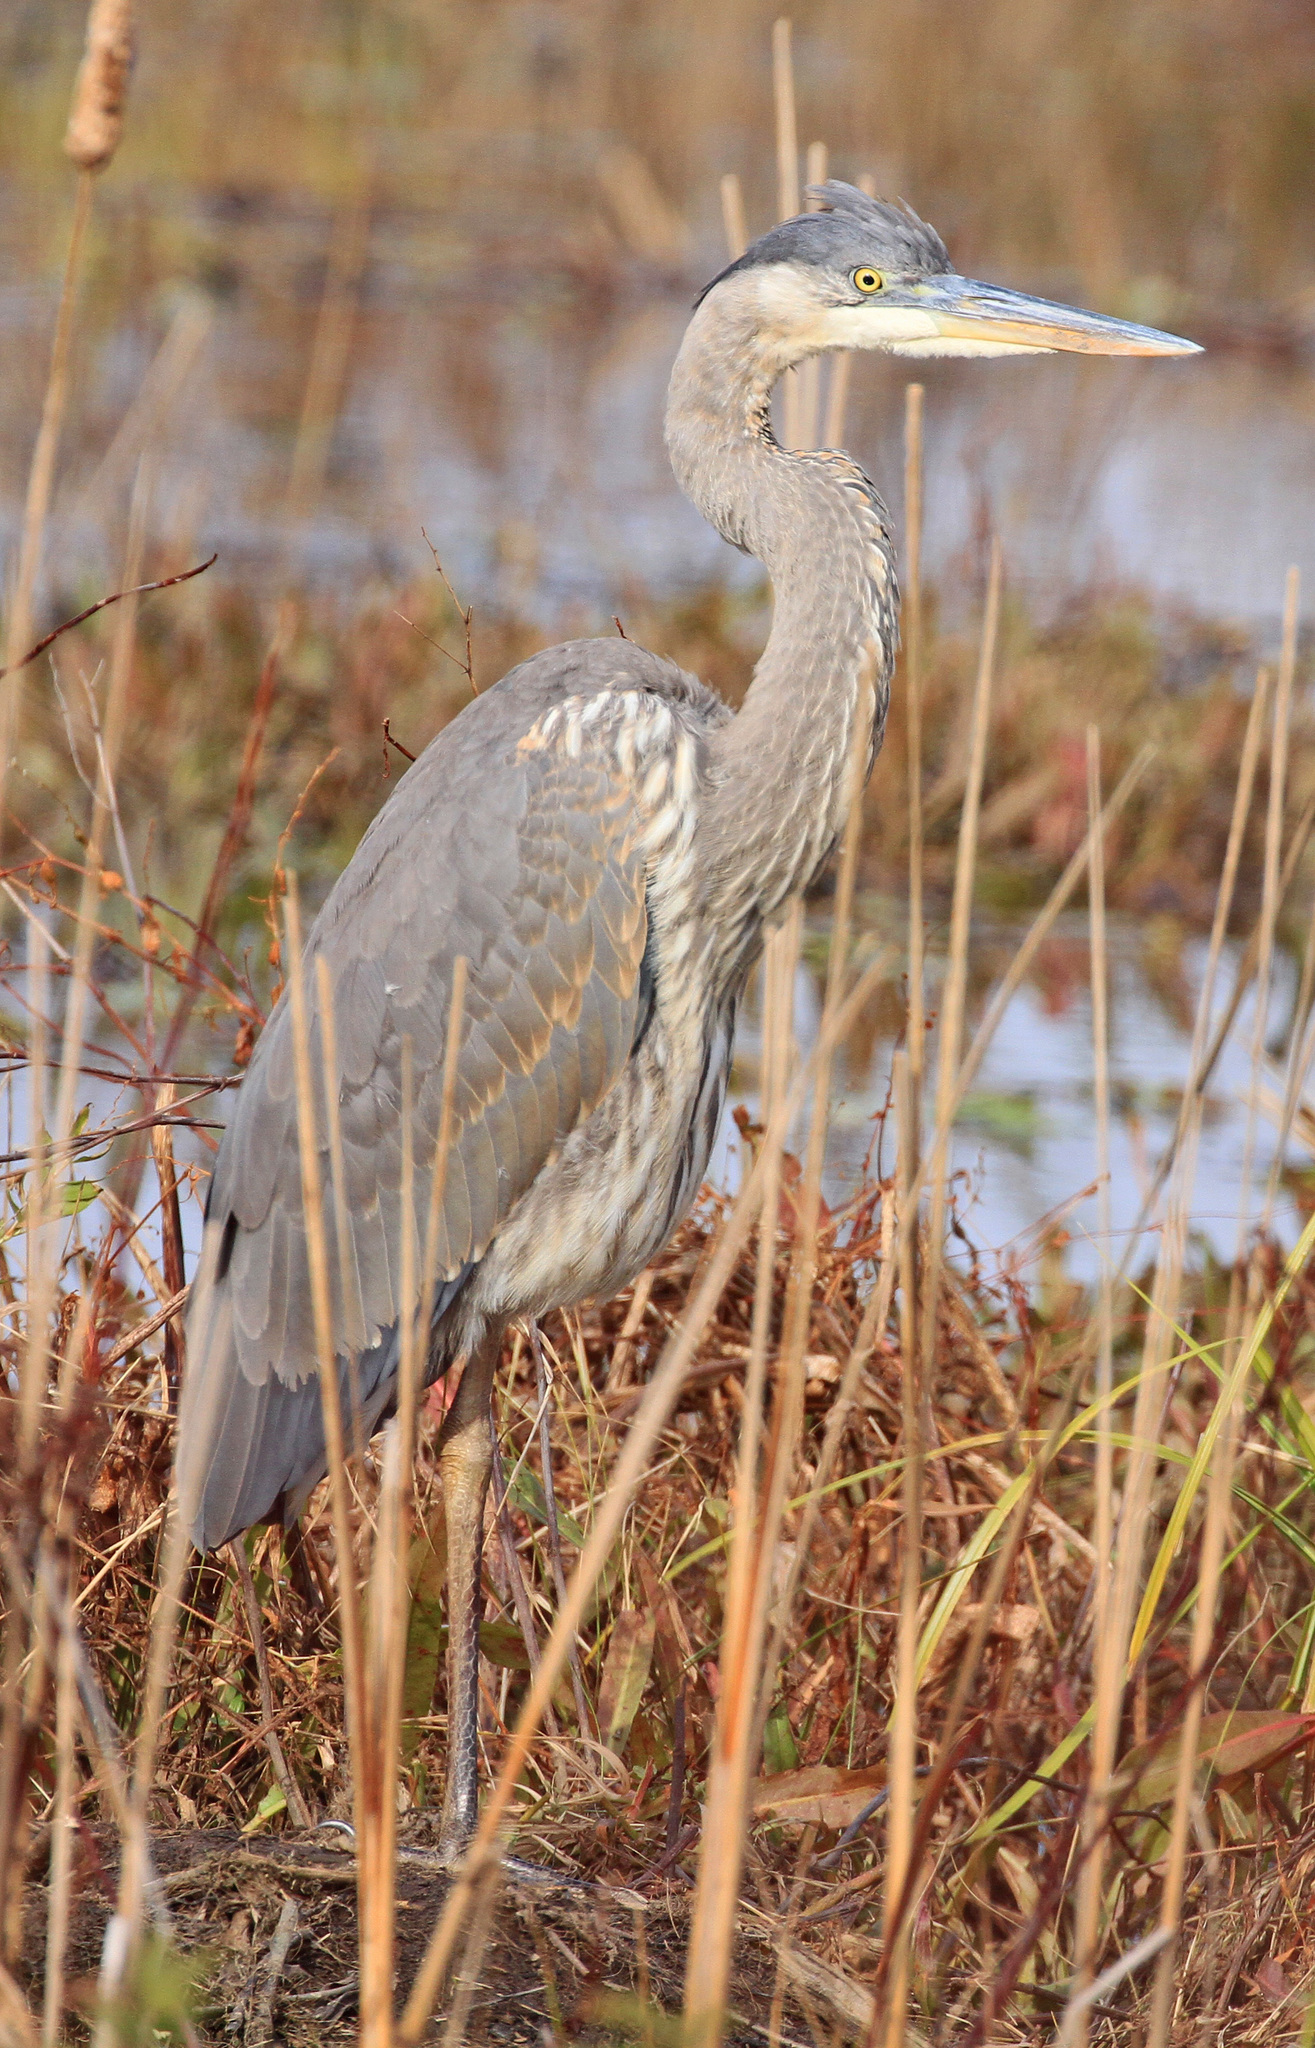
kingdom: Animalia
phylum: Chordata
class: Aves
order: Pelecaniformes
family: Ardeidae
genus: Ardea
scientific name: Ardea herodias
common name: Great blue heron
